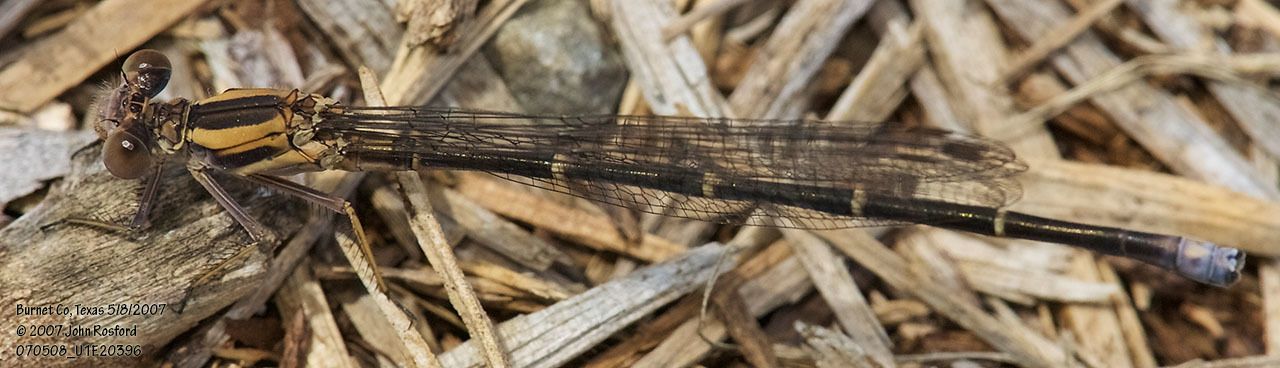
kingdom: Animalia
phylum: Arthropoda
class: Insecta
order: Odonata
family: Coenagrionidae
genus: Argia
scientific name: Argia moesta
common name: Powdered dancer
